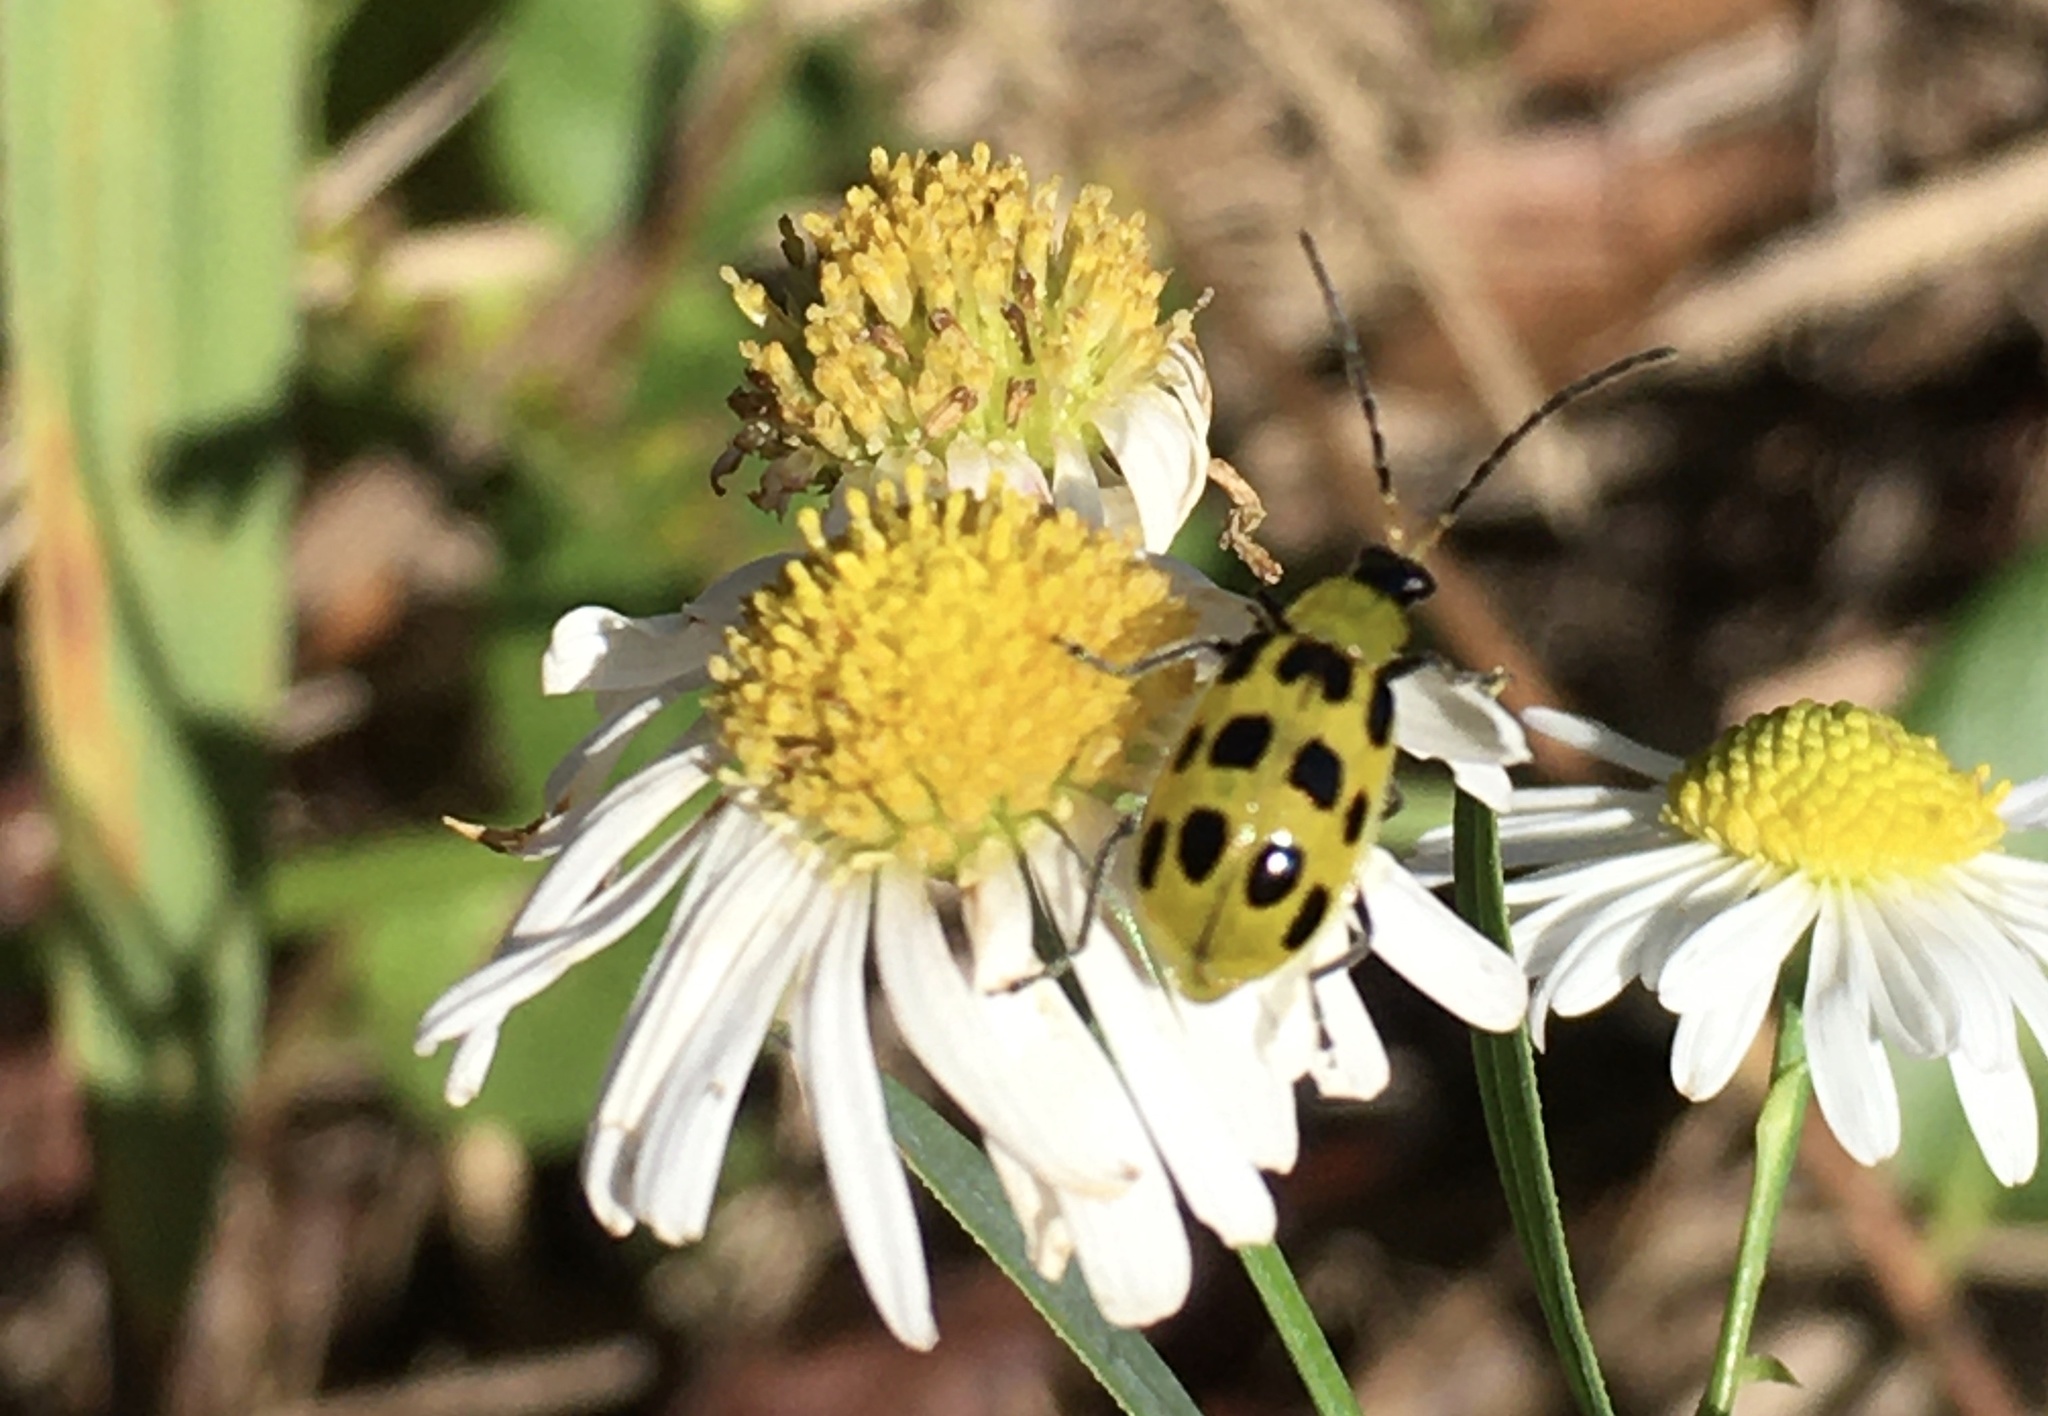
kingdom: Animalia
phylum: Arthropoda
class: Insecta
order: Coleoptera
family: Chrysomelidae
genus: Diabrotica
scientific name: Diabrotica undecimpunctata
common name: Spotted cucumber beetle
